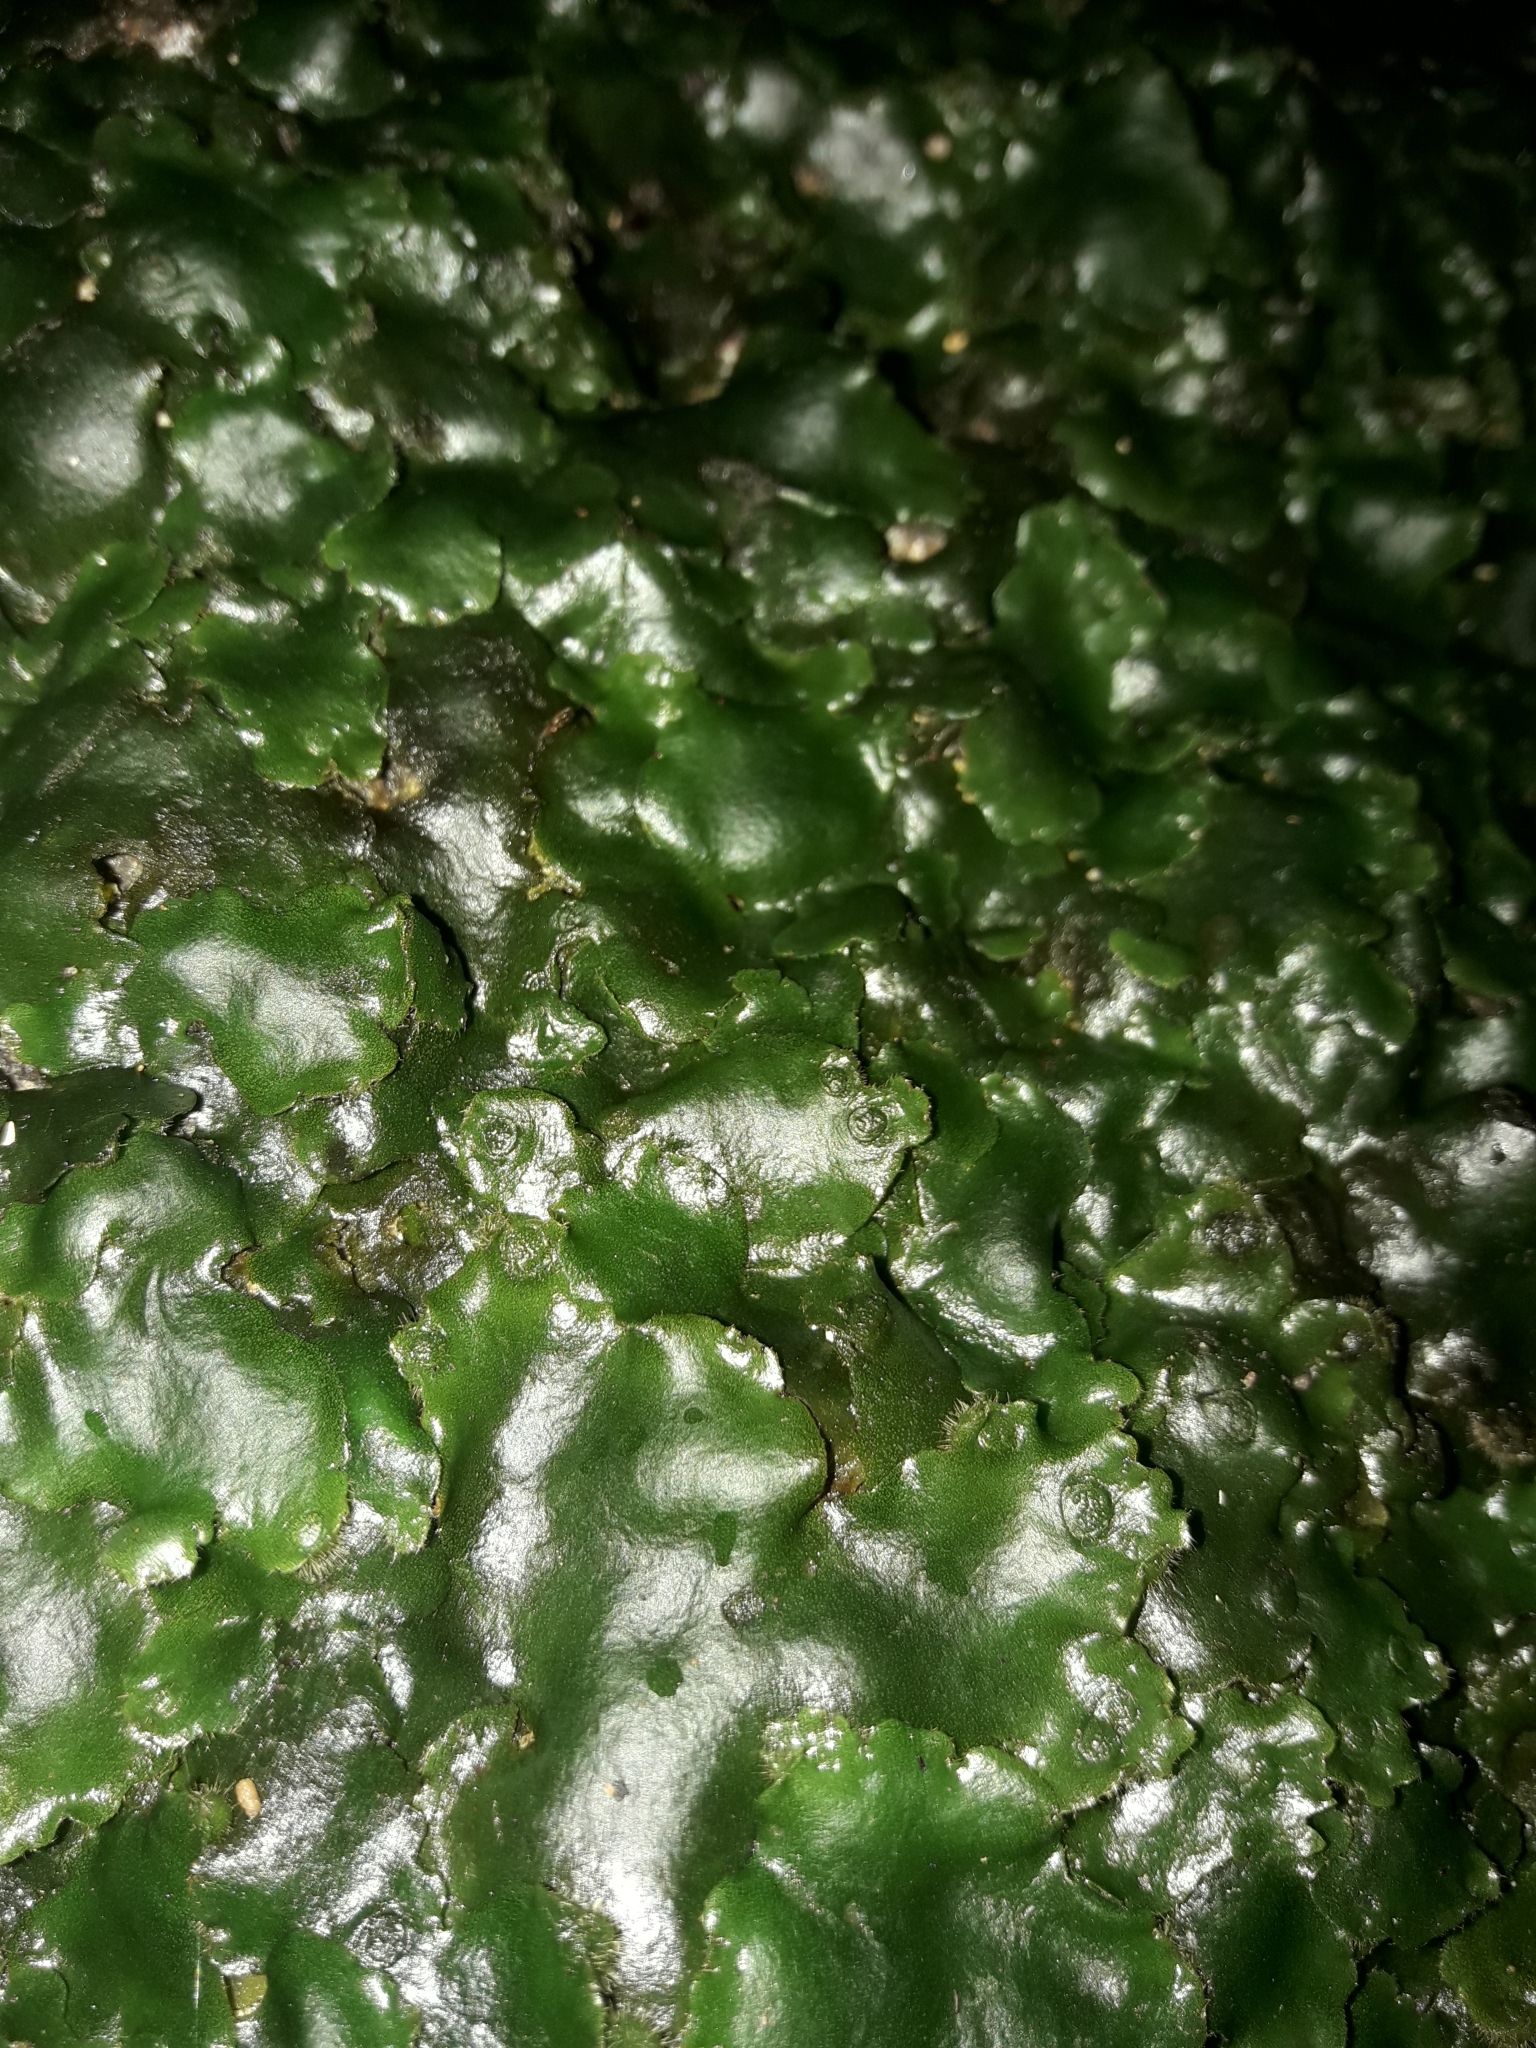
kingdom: Plantae
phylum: Marchantiophyta
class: Marchantiopsida
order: Marchantiales
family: Monocleaceae
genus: Monoclea
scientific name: Monoclea forsteri
